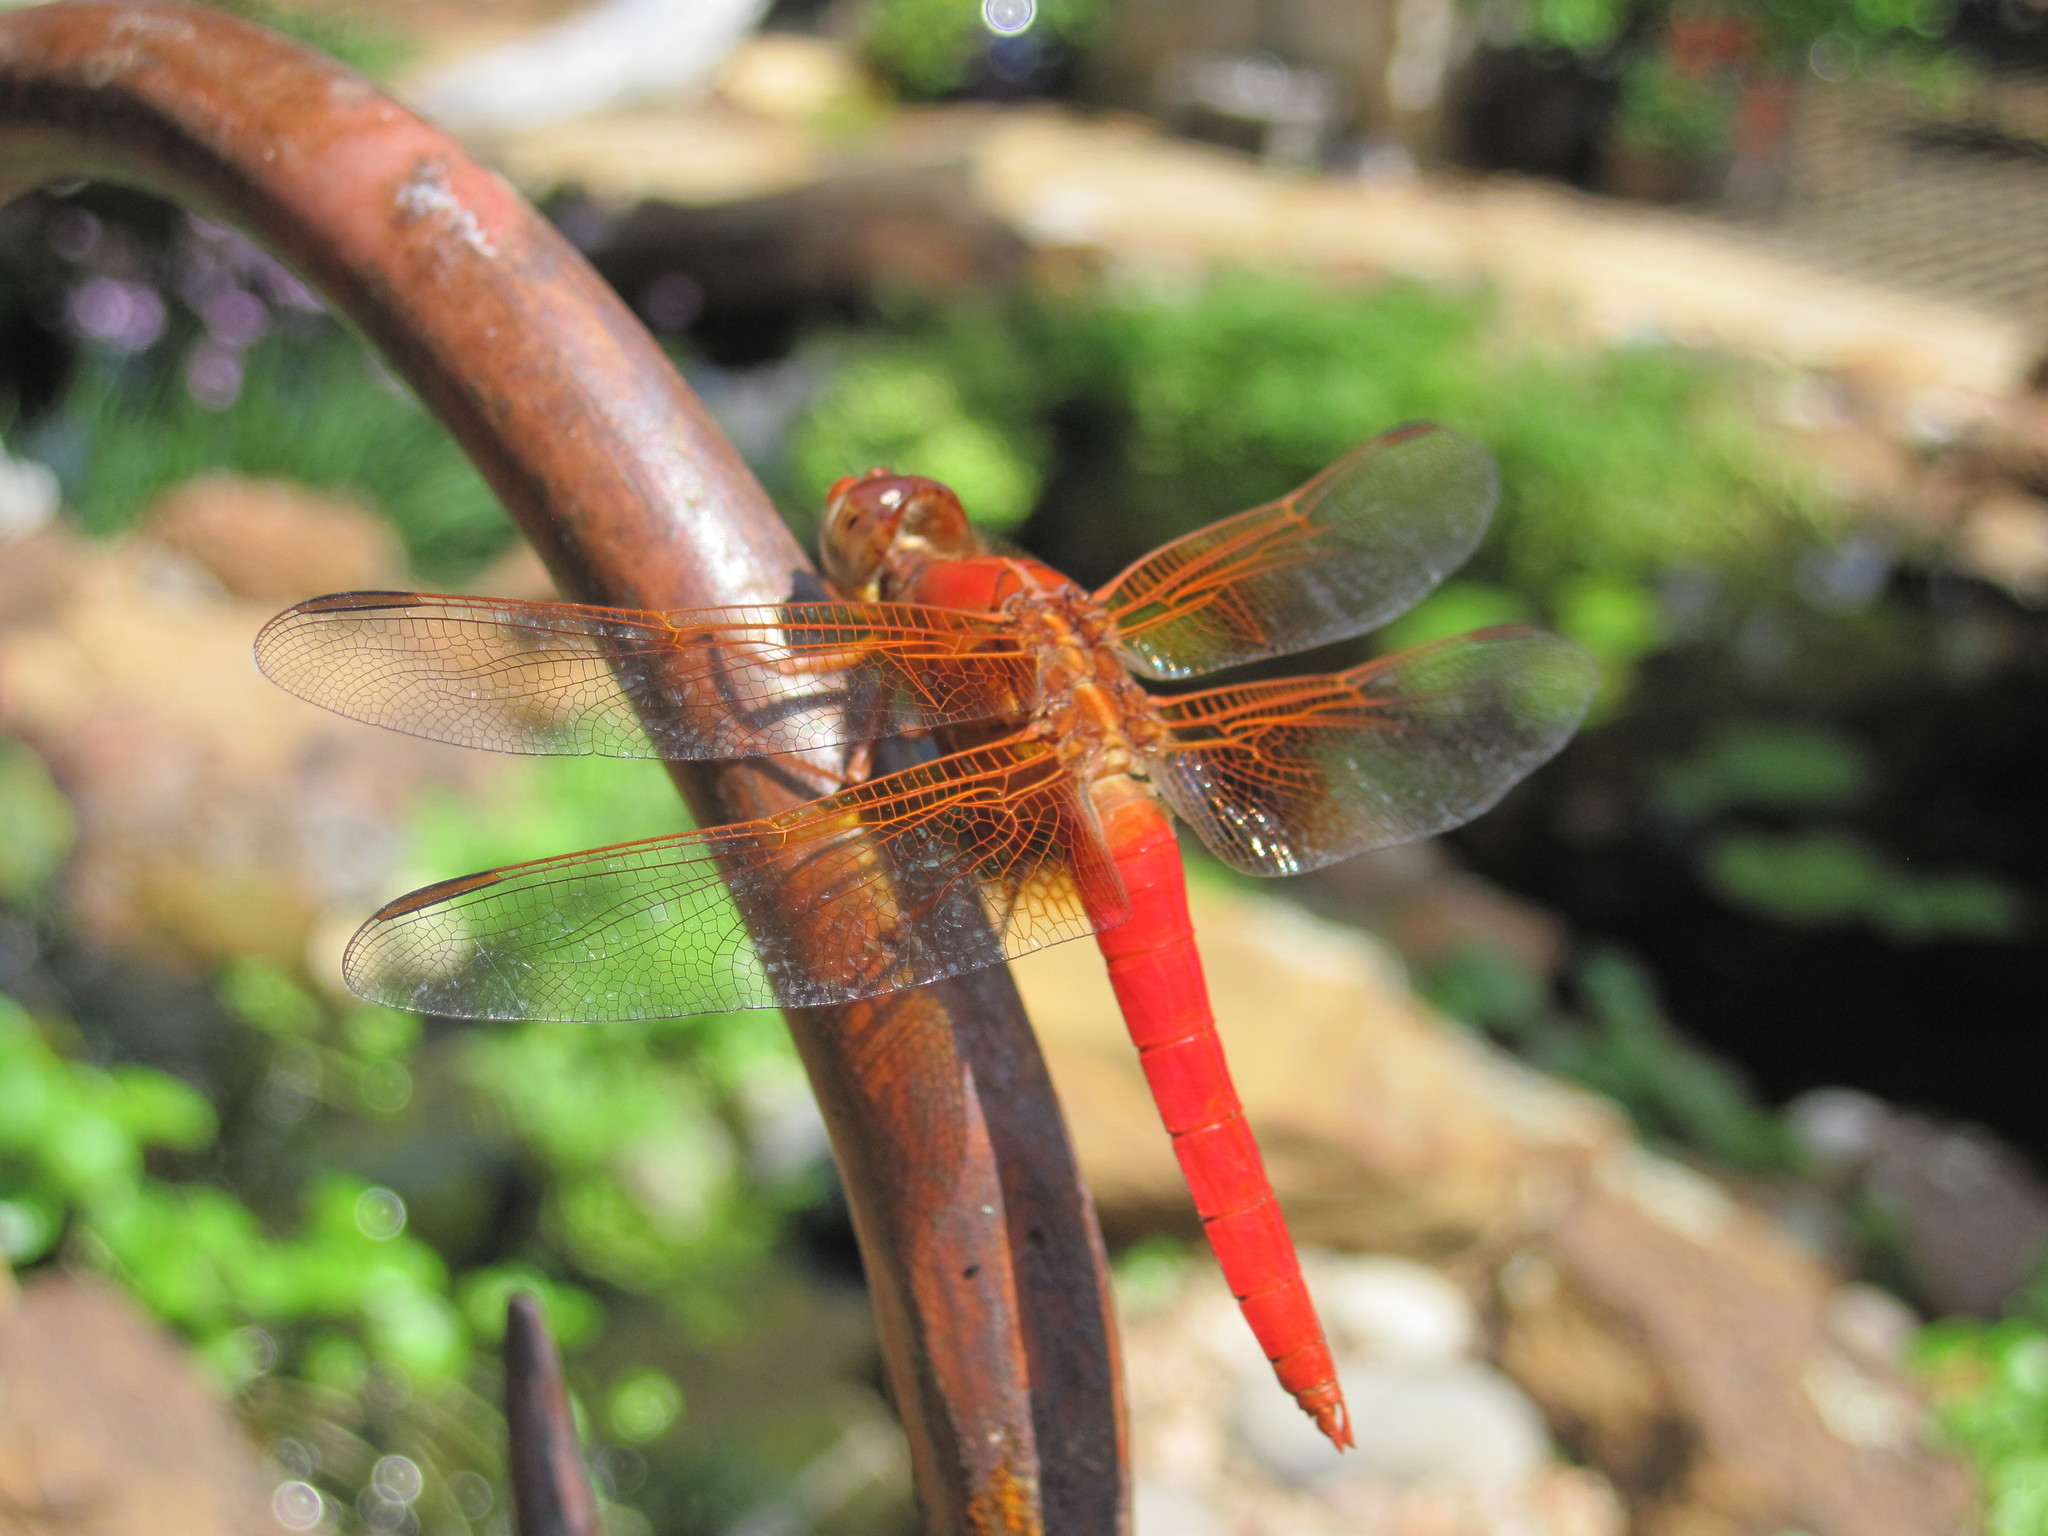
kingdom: Animalia
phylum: Arthropoda
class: Insecta
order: Odonata
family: Libellulidae
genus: Libellula
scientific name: Libellula croceipennis
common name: Neon skimmer
